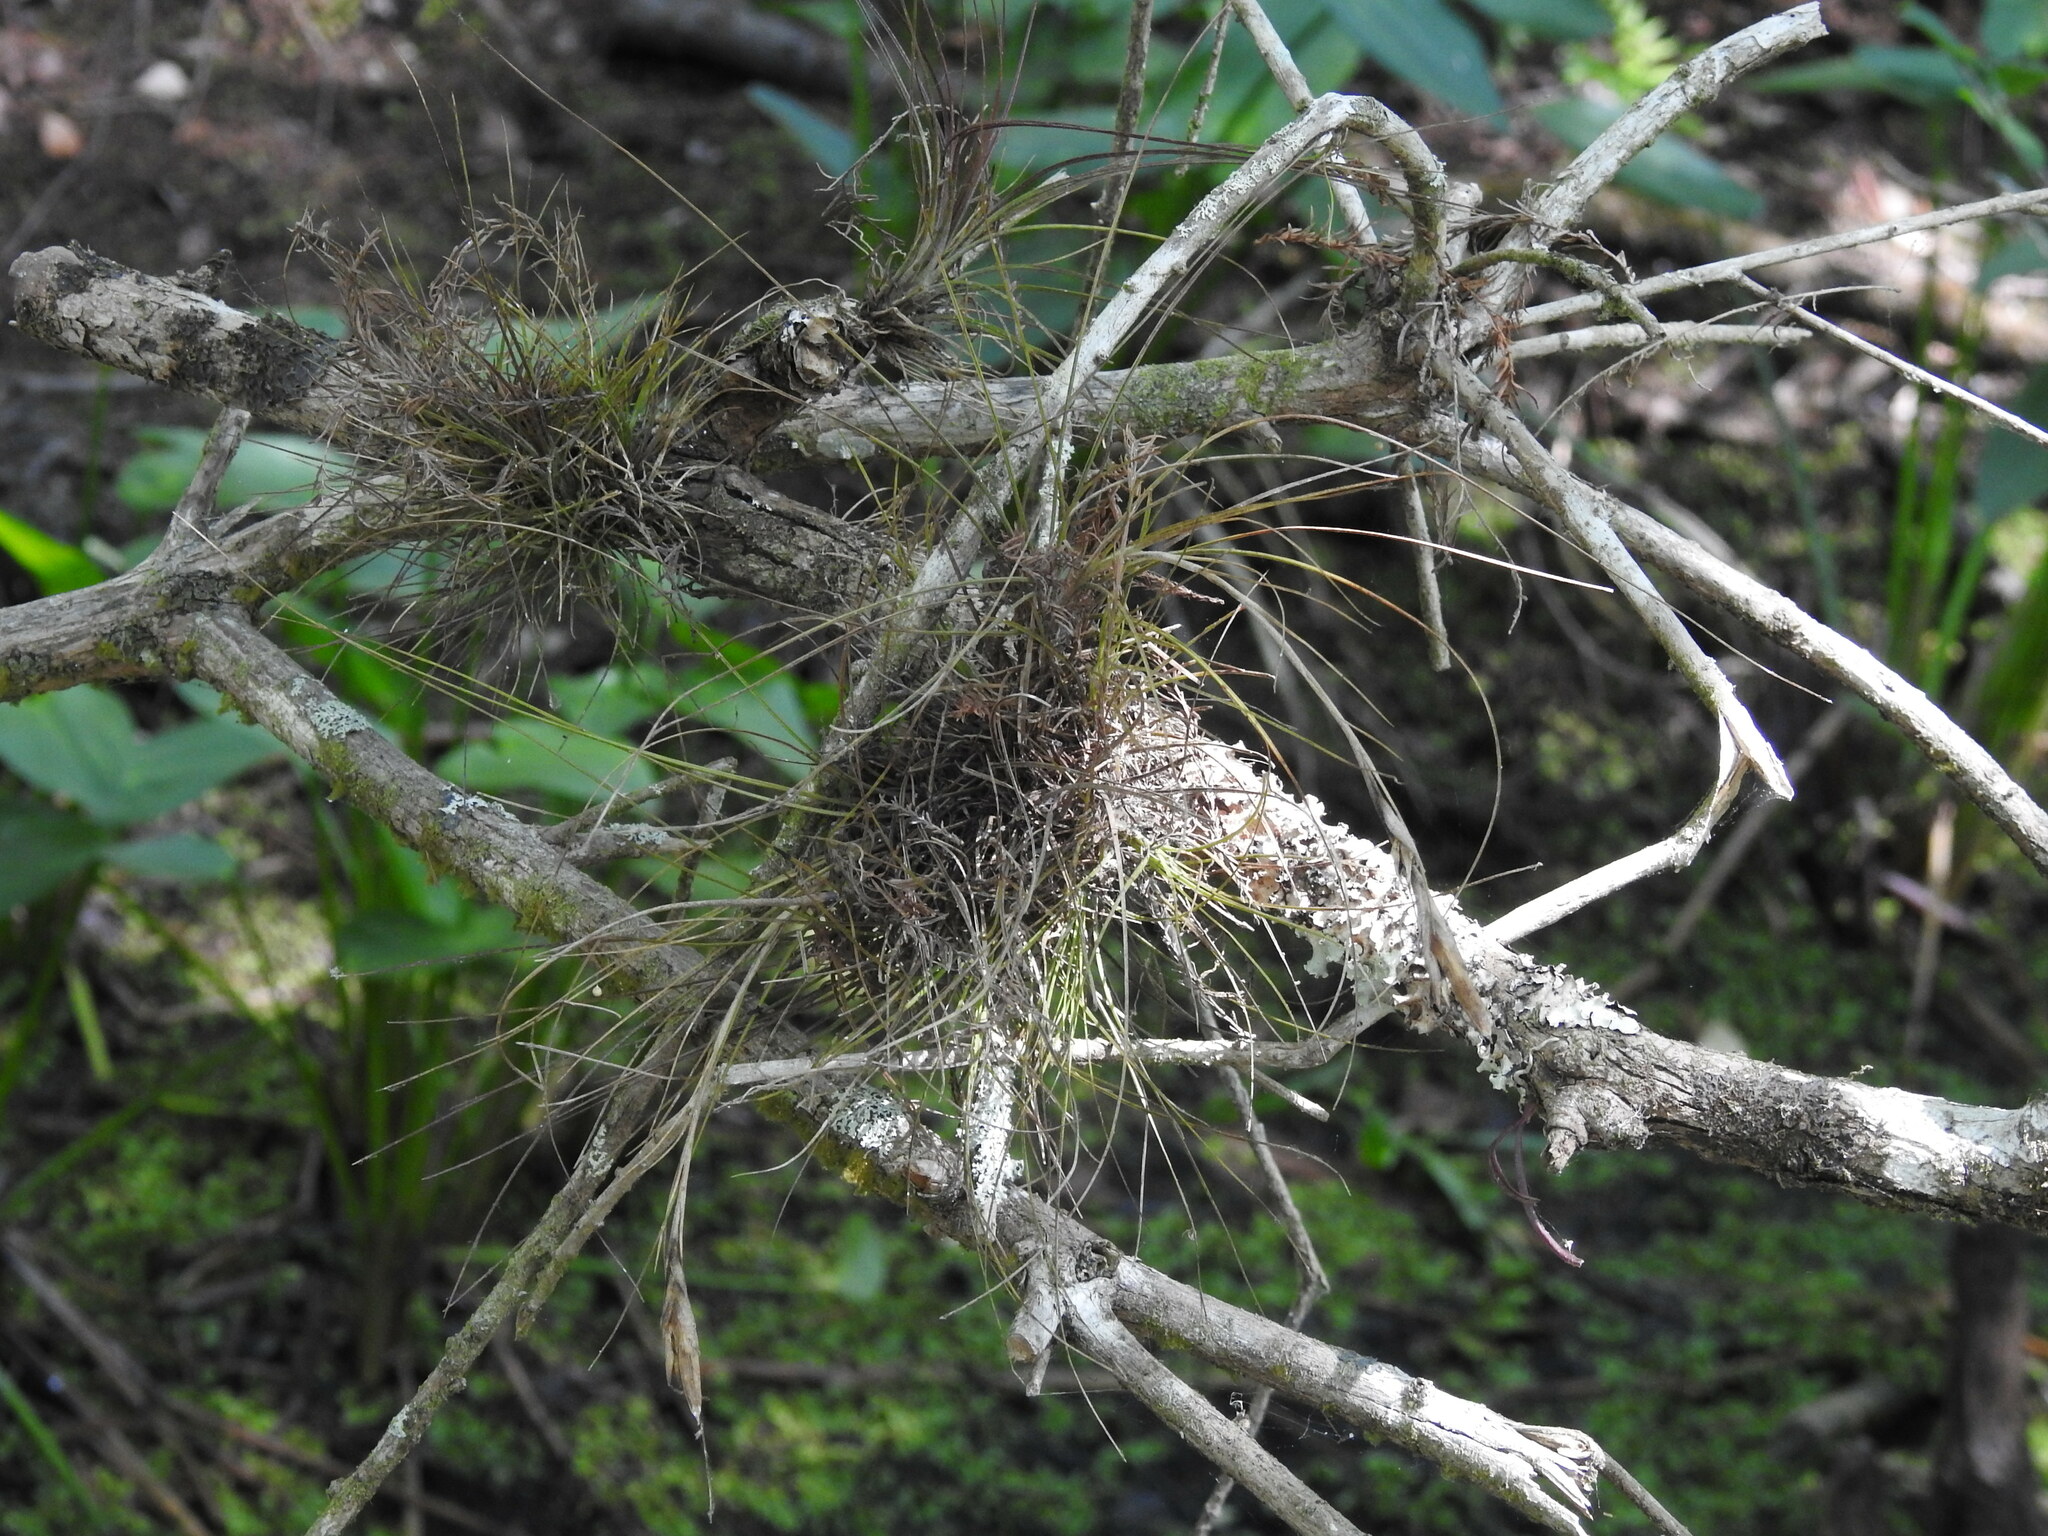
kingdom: Plantae
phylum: Tracheophyta
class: Liliopsida
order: Poales
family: Bromeliaceae
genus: Tillandsia
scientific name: Tillandsia setacea
